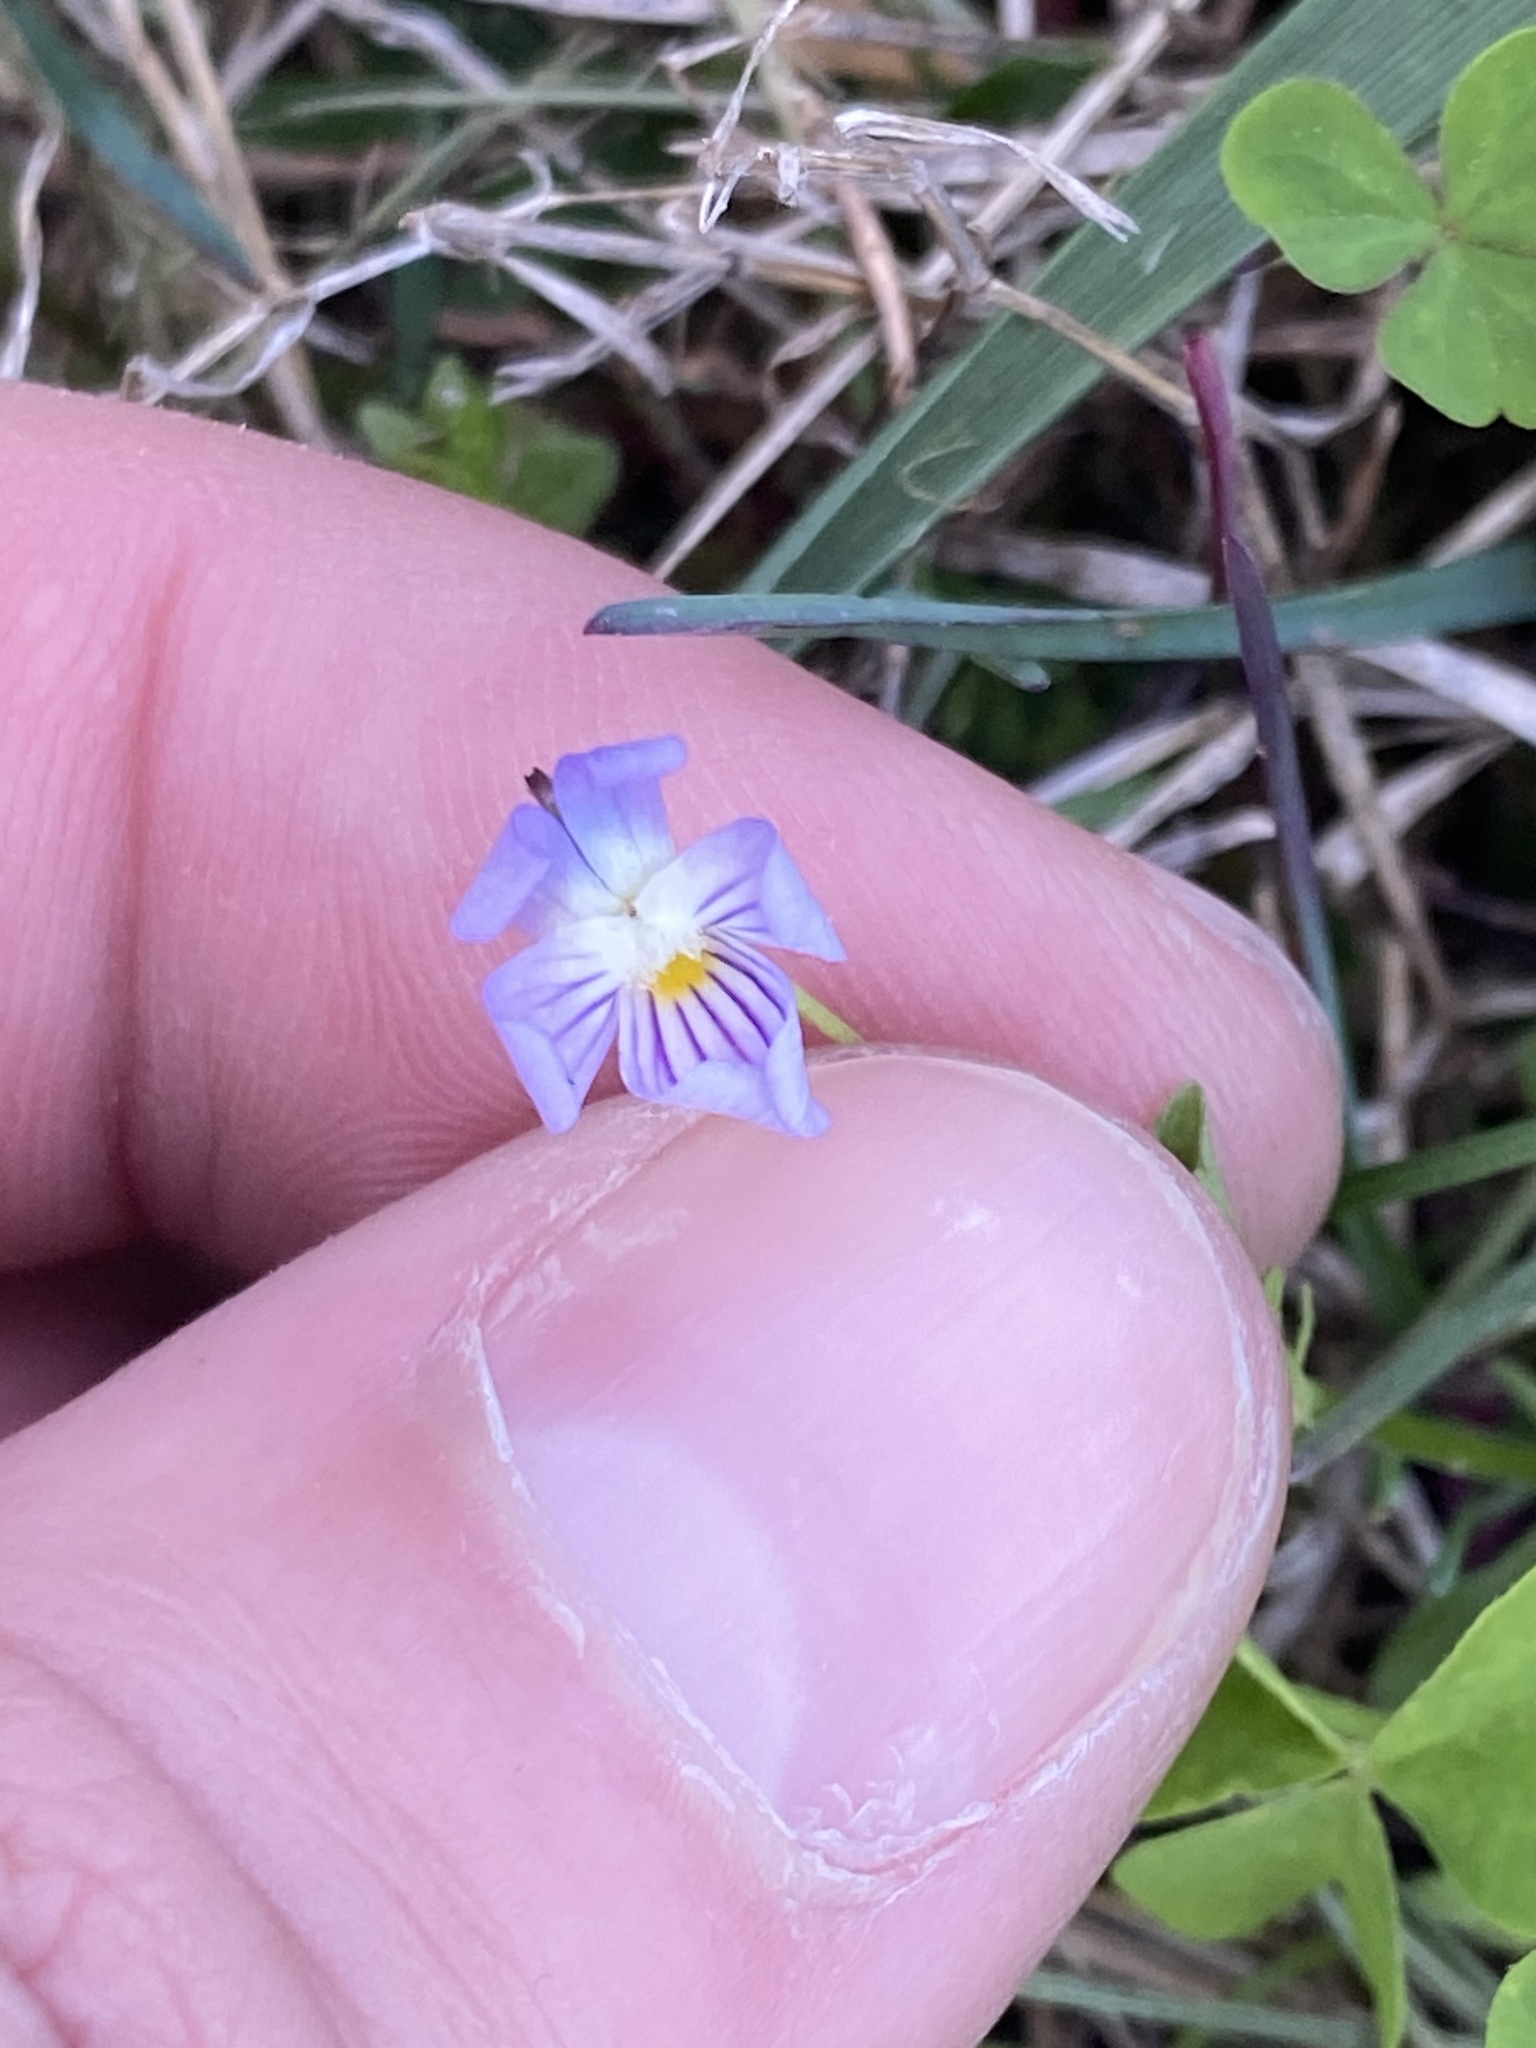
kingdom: Plantae
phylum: Tracheophyta
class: Magnoliopsida
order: Malpighiales
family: Violaceae
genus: Viola
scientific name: Viola rafinesquei
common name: American field pansy
